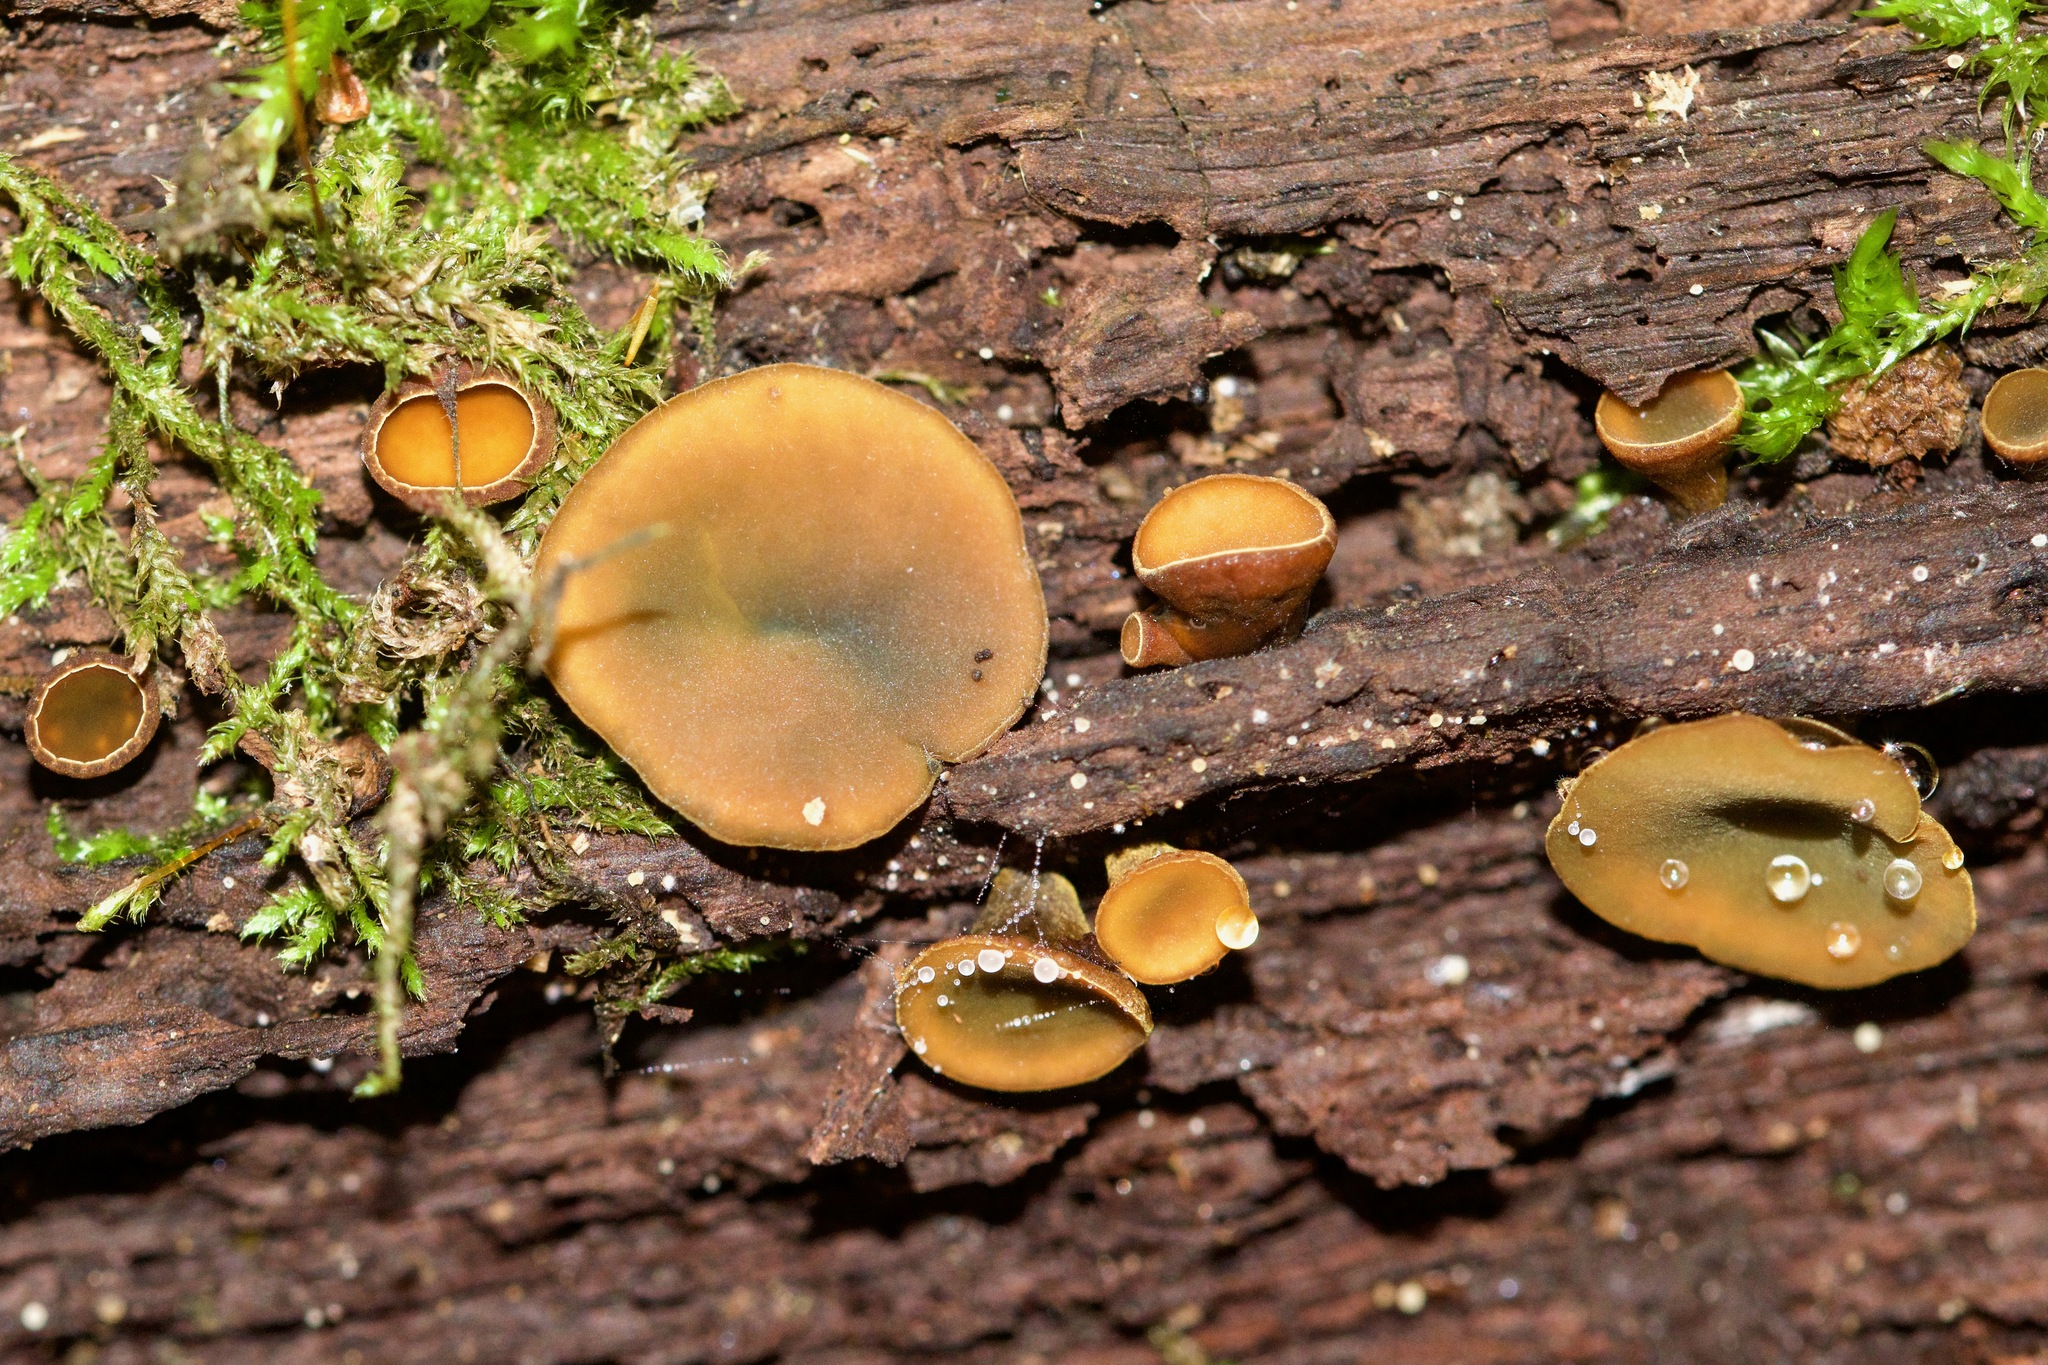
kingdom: Fungi
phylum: Ascomycota
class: Leotiomycetes
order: Helotiales
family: Cenangiaceae
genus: Chlorencoelia
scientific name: Chlorencoelia
